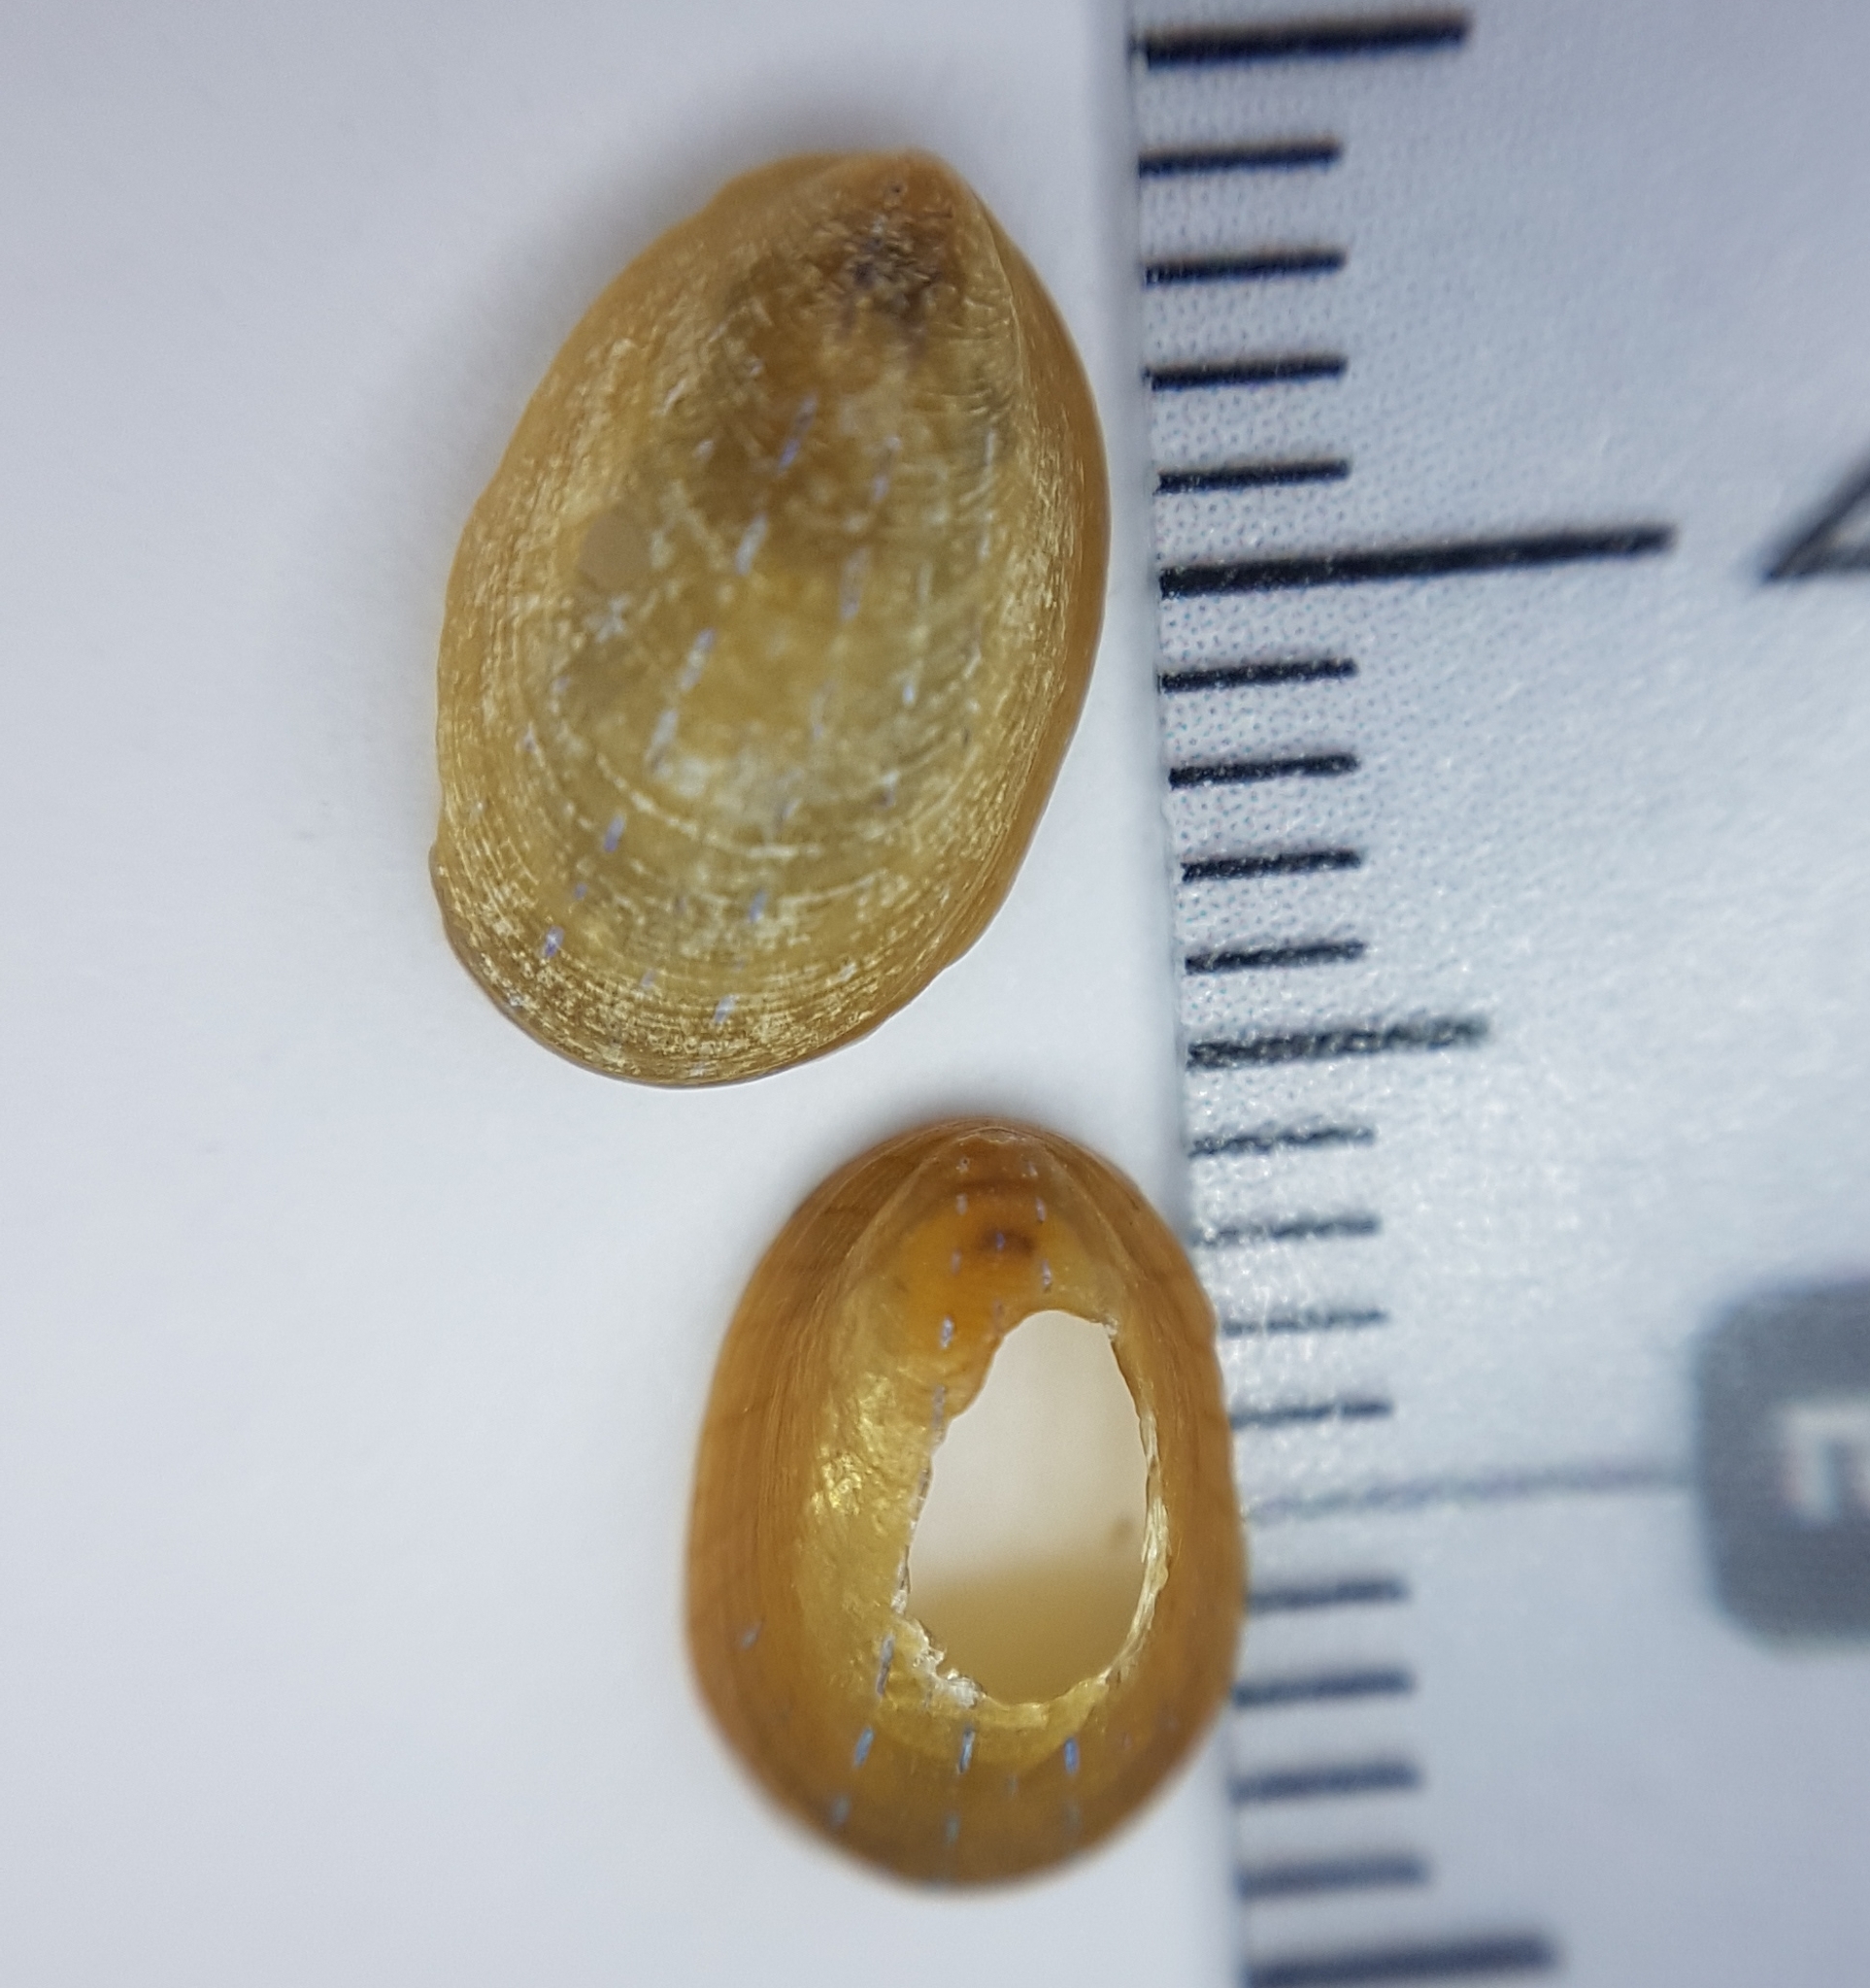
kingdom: Animalia
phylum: Mollusca
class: Gastropoda
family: Patellidae
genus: Patella
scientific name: Patella pellucida
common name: Blue-rayed limpet
